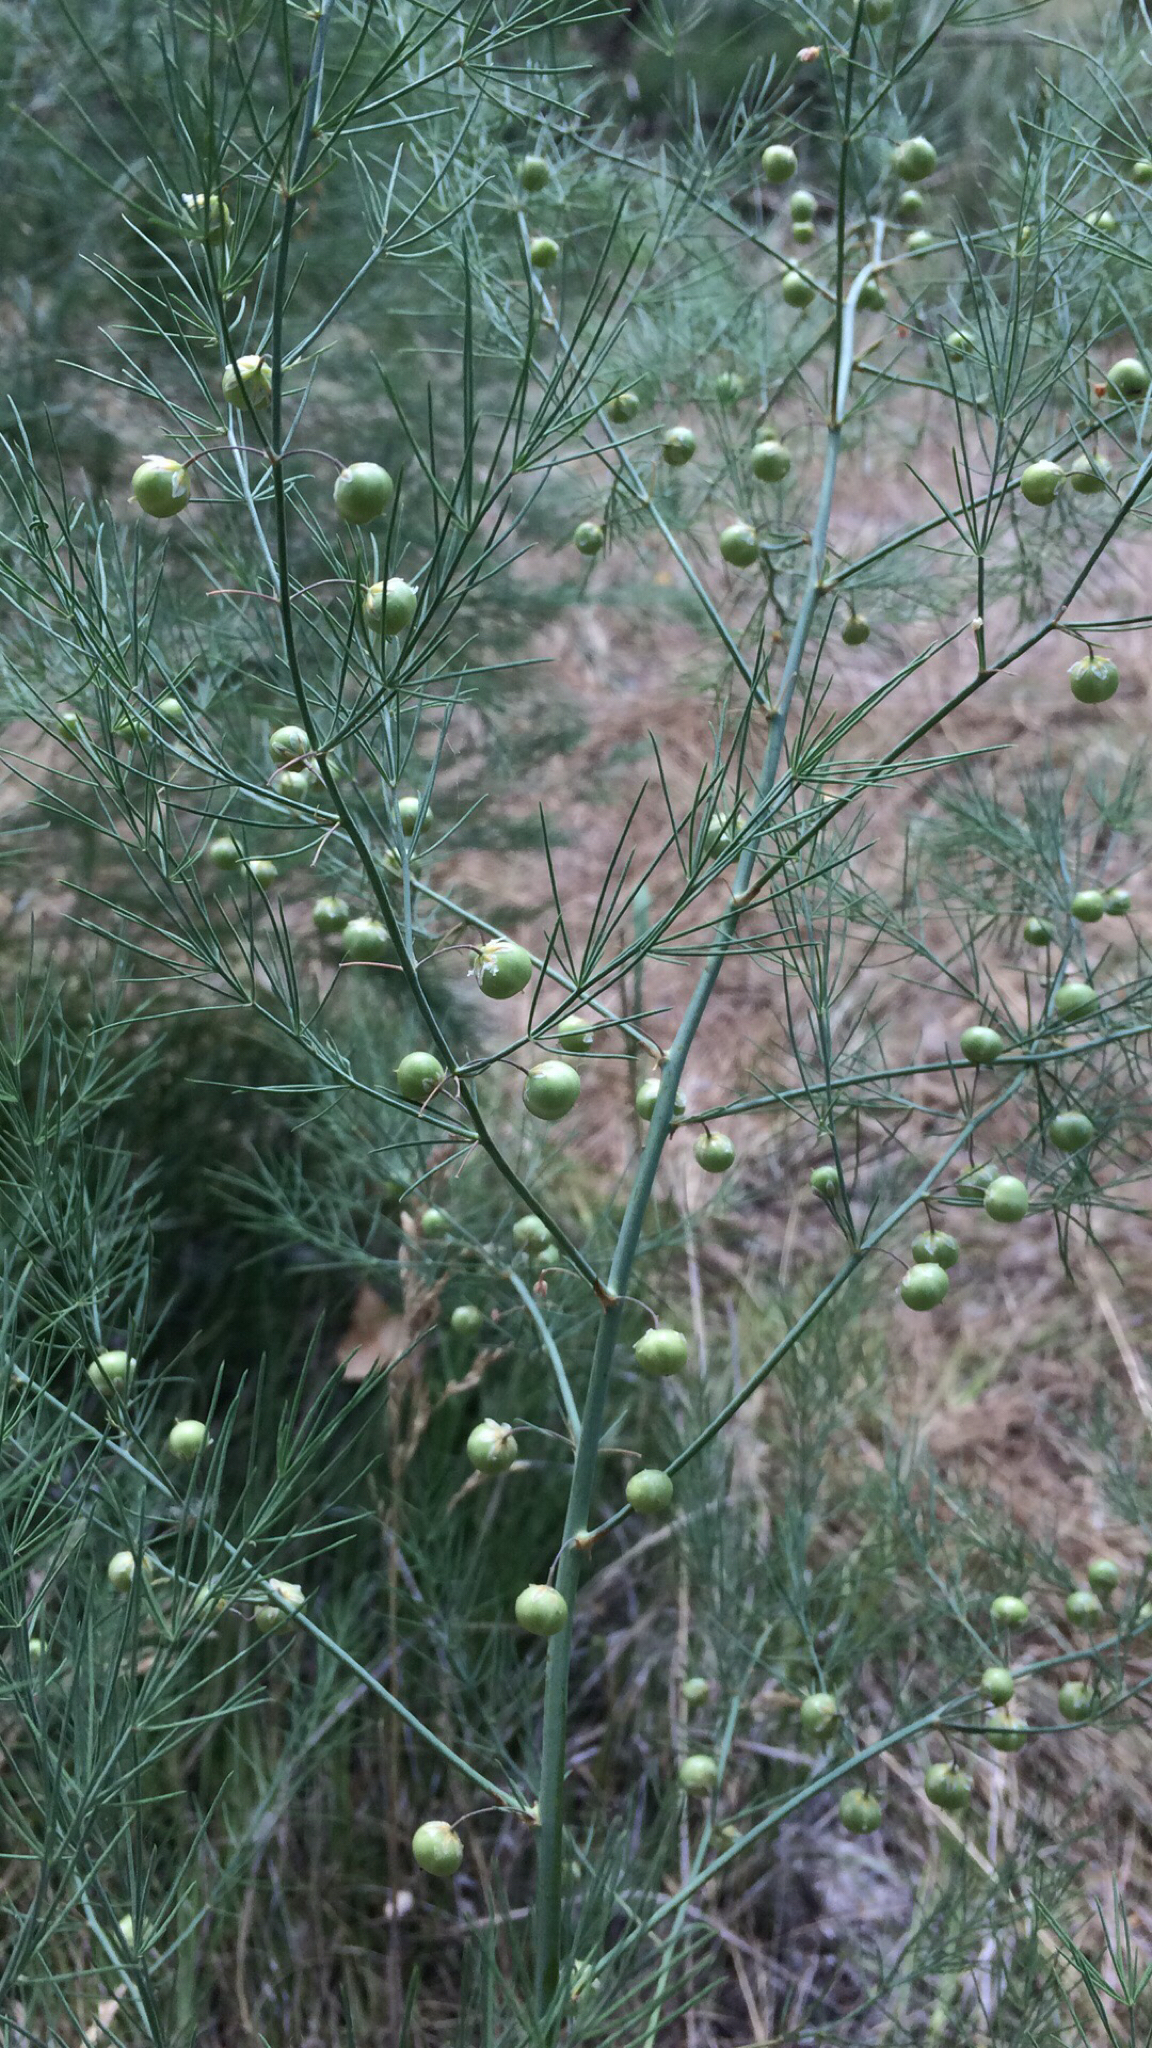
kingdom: Plantae
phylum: Tracheophyta
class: Liliopsida
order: Asparagales
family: Asparagaceae
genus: Asparagus
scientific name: Asparagus officinalis
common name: Garden asparagus
